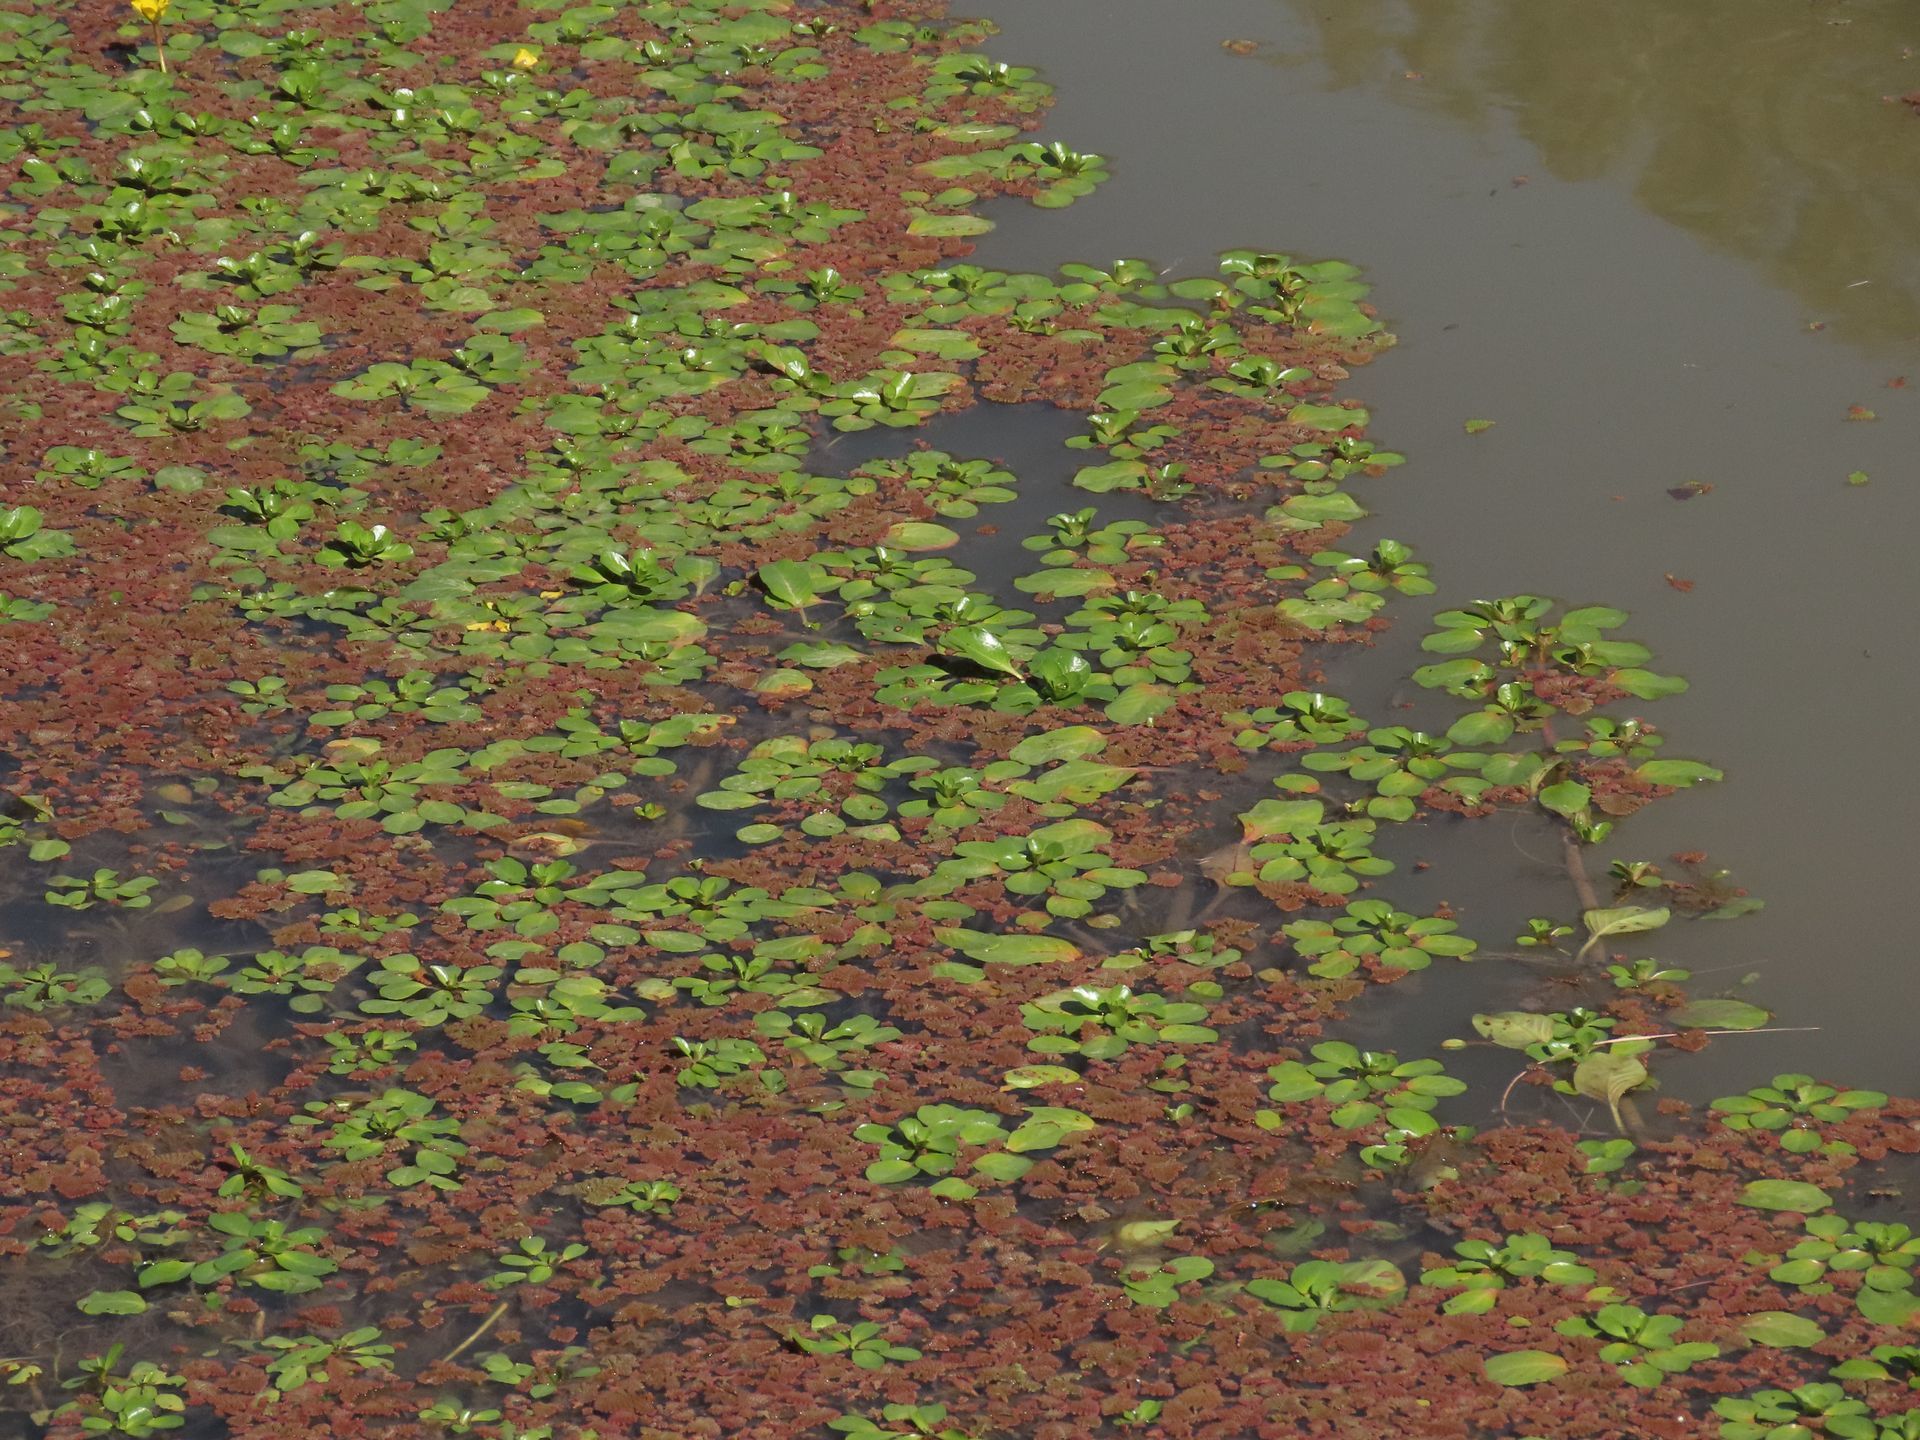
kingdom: Plantae
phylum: Tracheophyta
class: Magnoliopsida
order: Myrtales
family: Onagraceae
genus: Ludwigia
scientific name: Ludwigia peploides
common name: Floating primrose-willow
